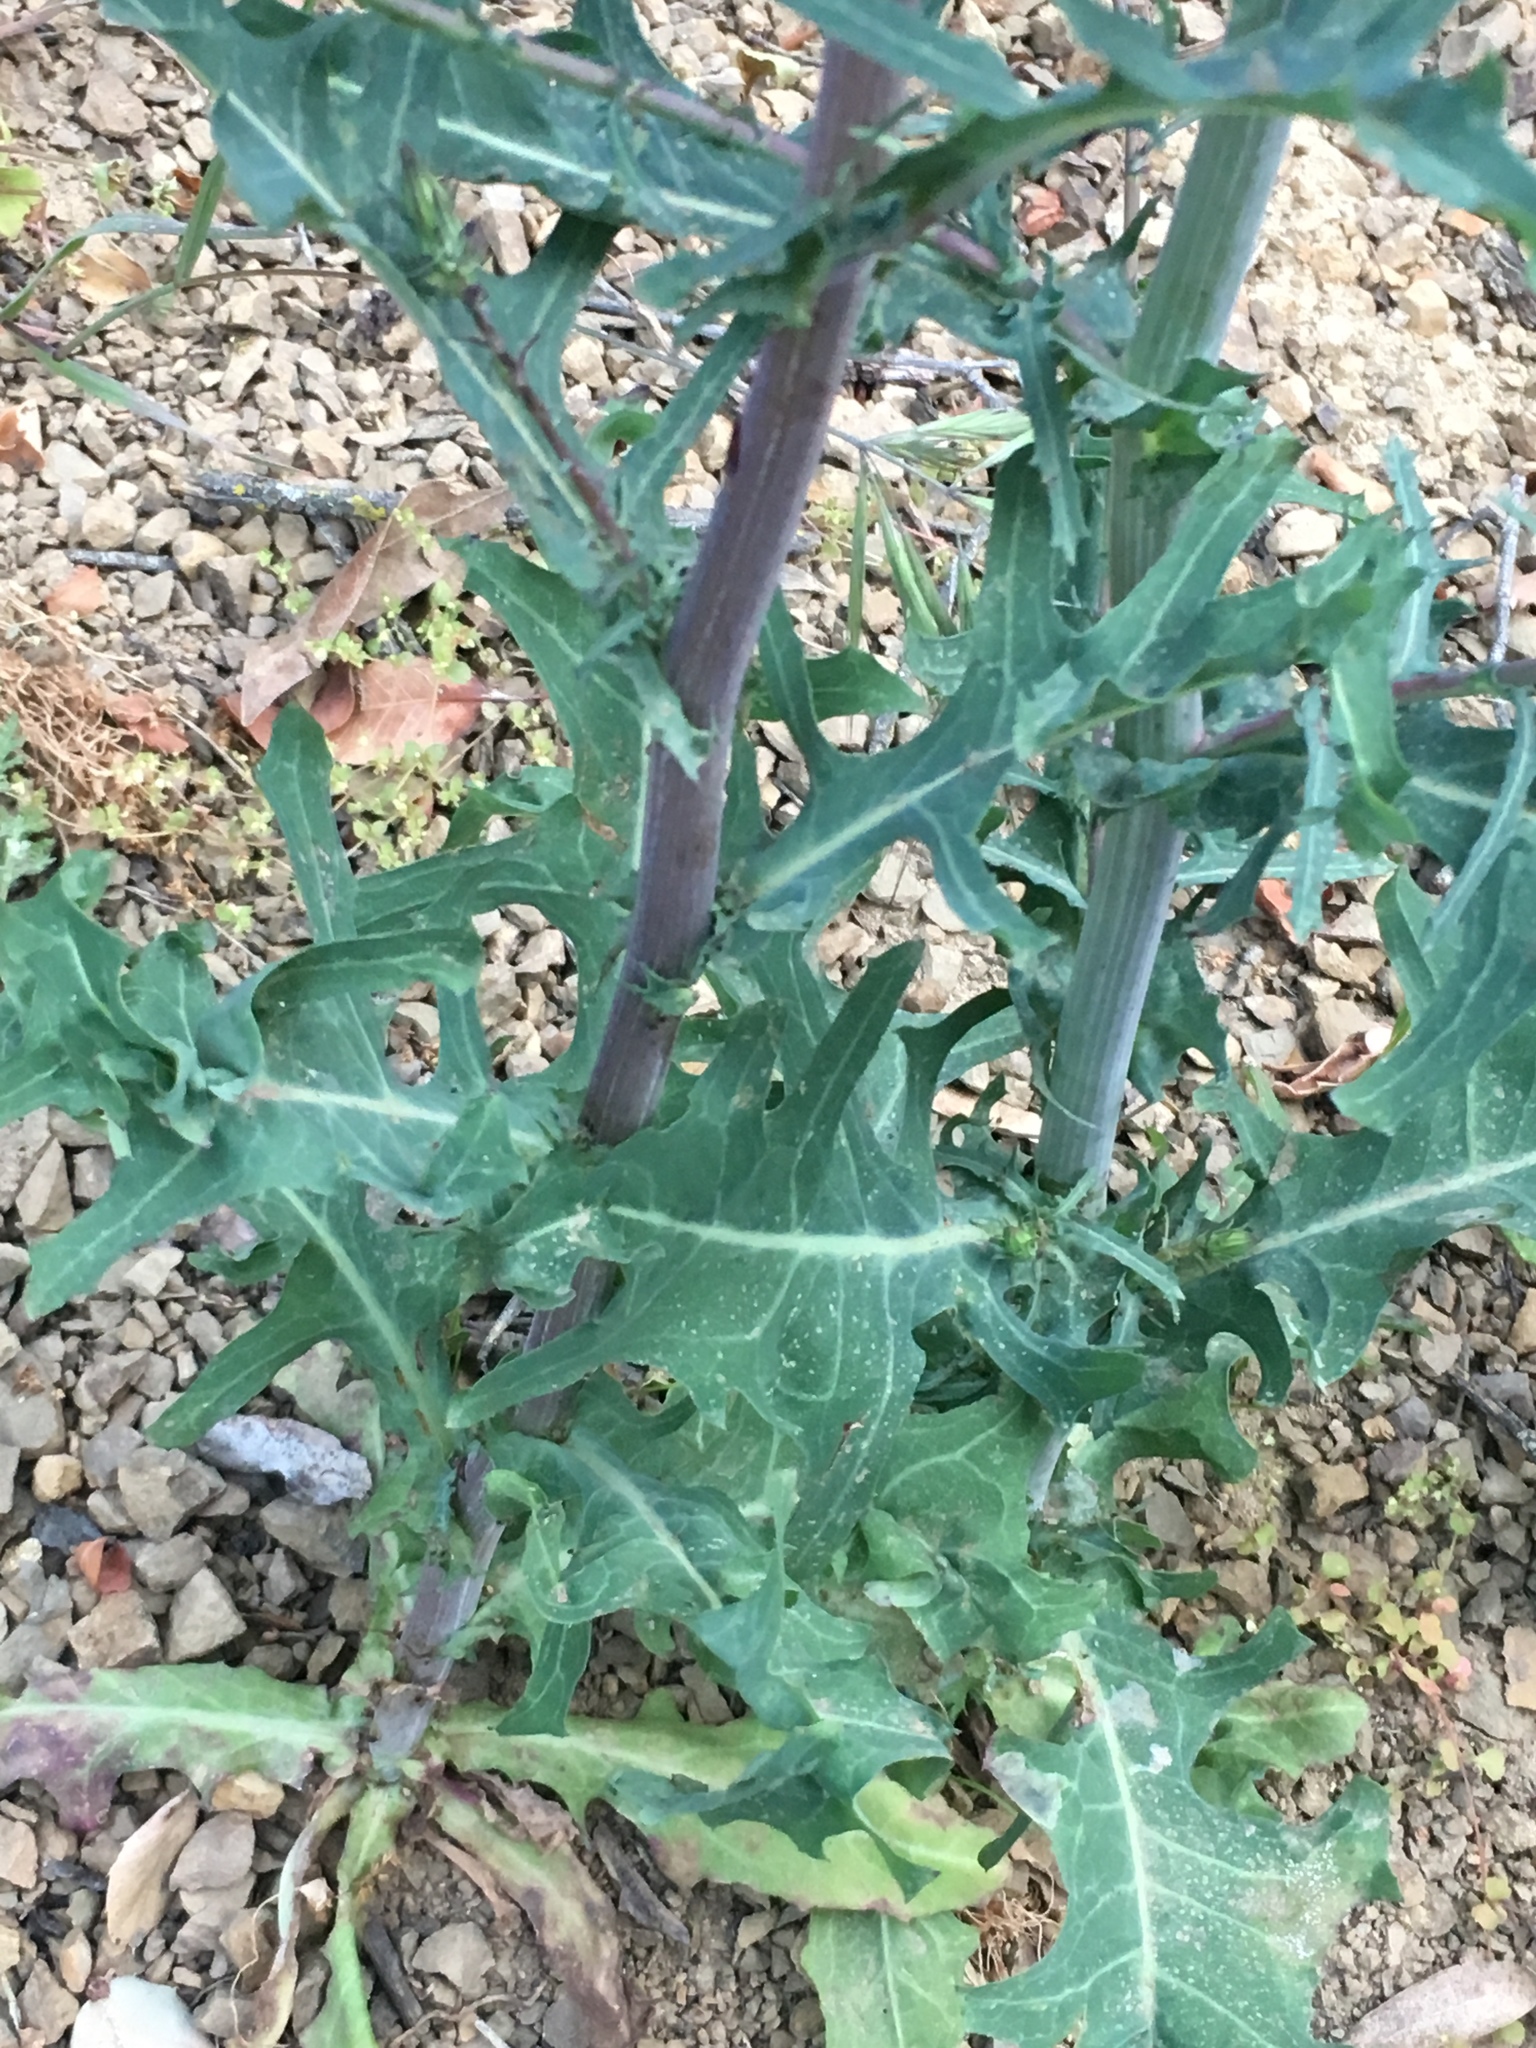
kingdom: Plantae
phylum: Tracheophyta
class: Magnoliopsida
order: Asterales
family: Asteraceae
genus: Rafinesquia
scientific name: Rafinesquia californica
